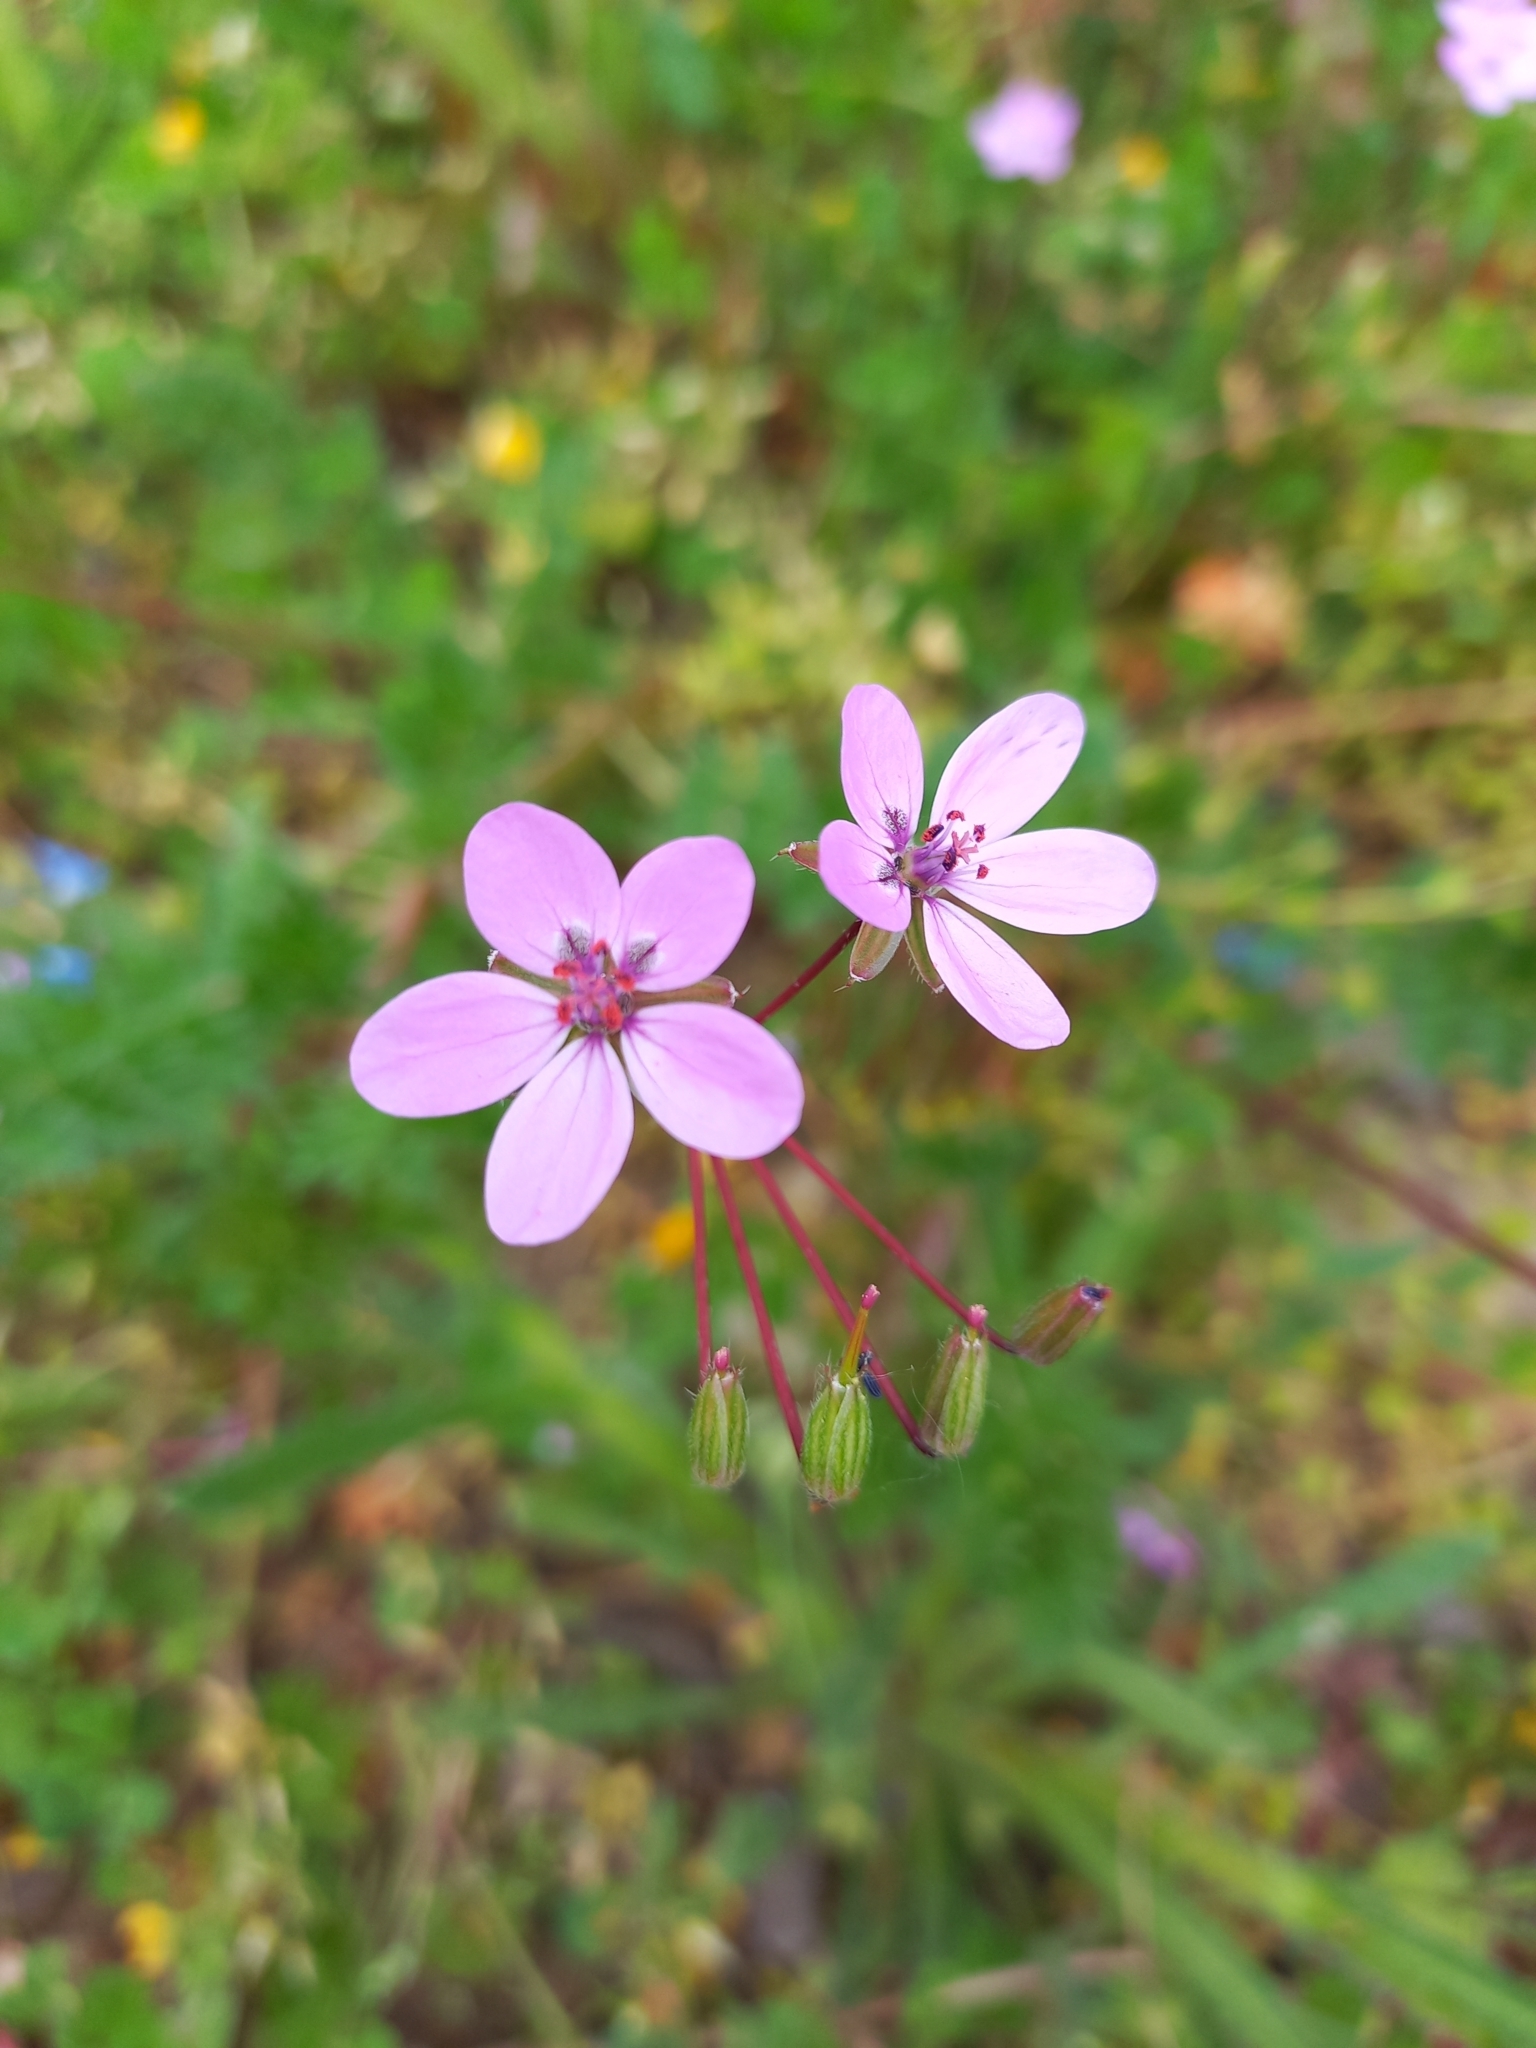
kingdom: Plantae
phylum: Tracheophyta
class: Magnoliopsida
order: Geraniales
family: Geraniaceae
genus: Erodium
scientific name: Erodium cicutarium
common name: Common stork's-bill
